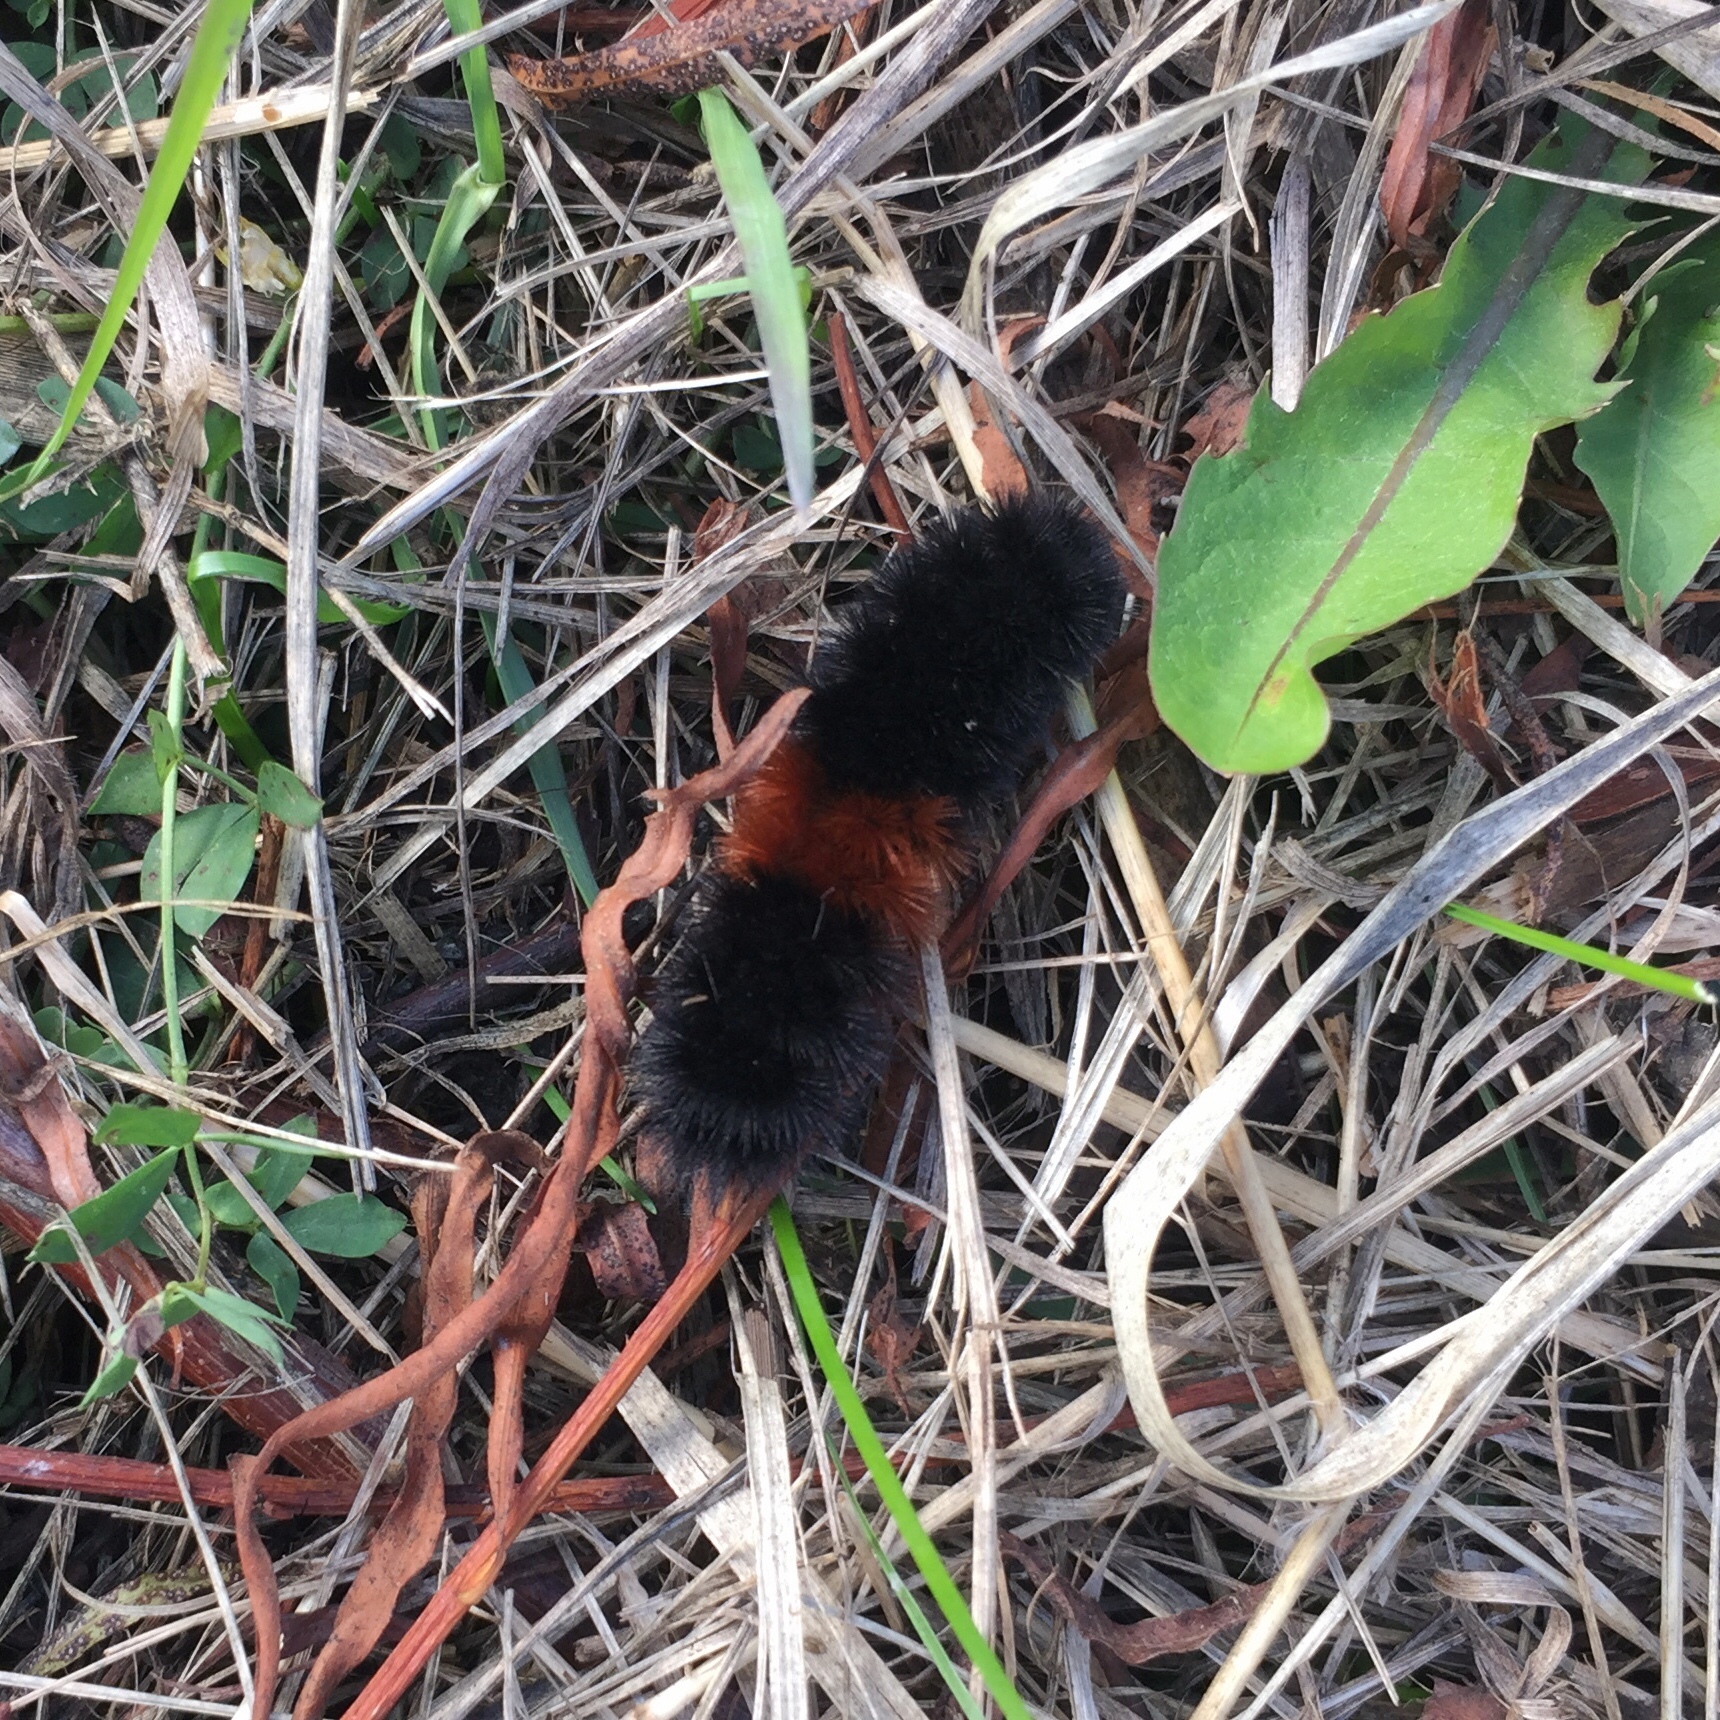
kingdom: Animalia
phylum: Arthropoda
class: Insecta
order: Lepidoptera
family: Erebidae
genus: Pyrrharctia
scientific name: Pyrrharctia isabella
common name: Isabella tiger moth
